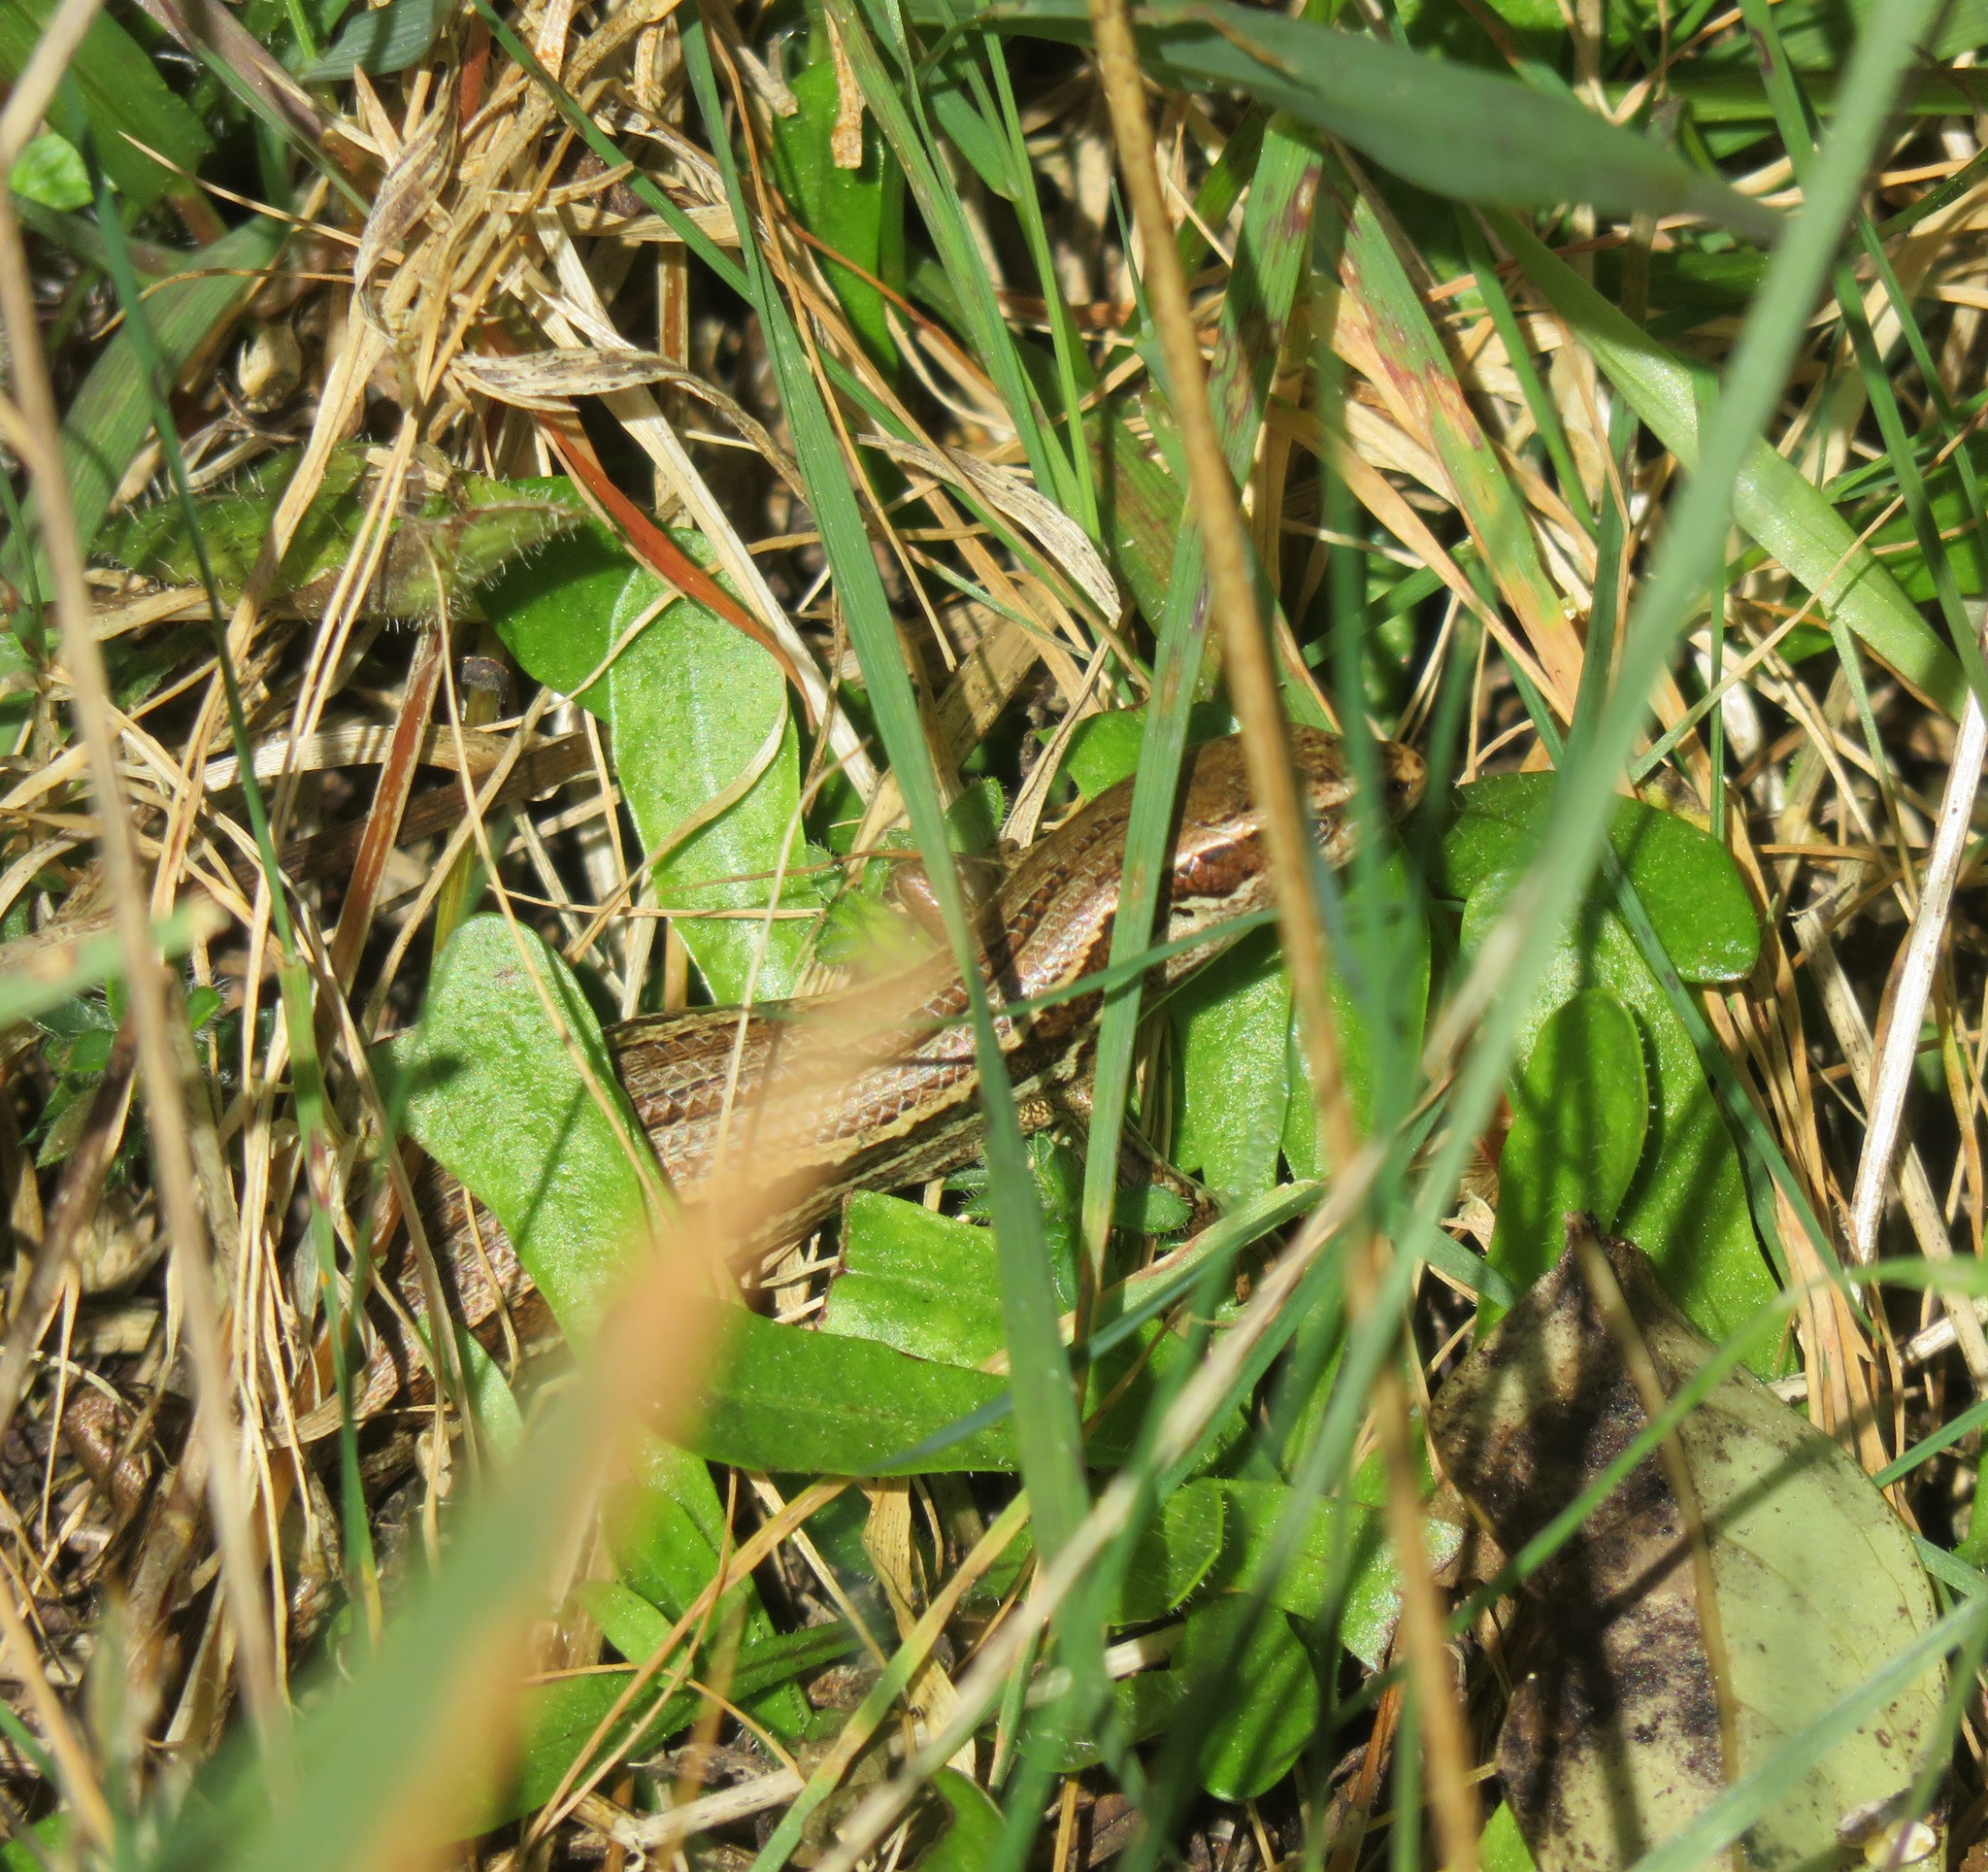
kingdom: Animalia
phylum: Chordata
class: Squamata
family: Scincidae
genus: Oligosoma
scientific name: Oligosoma polychroma
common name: Common new zealand skink
